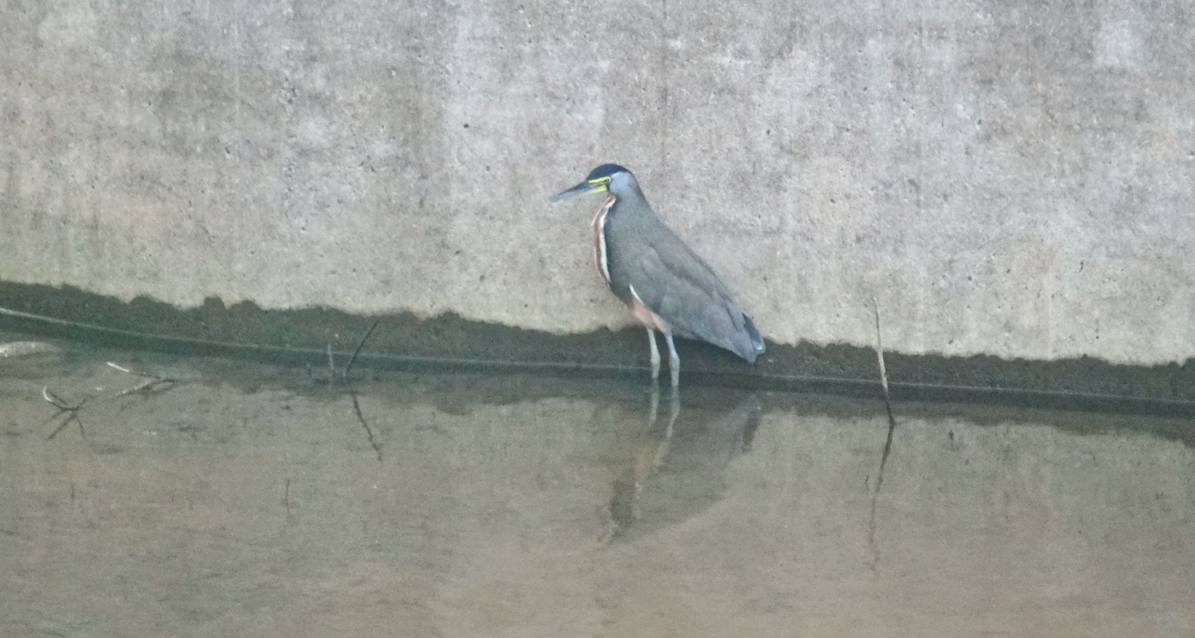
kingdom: Animalia
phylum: Chordata
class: Aves
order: Pelecaniformes
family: Ardeidae
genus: Tigrisoma
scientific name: Tigrisoma mexicanum
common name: Bare-throated tiger-heron
